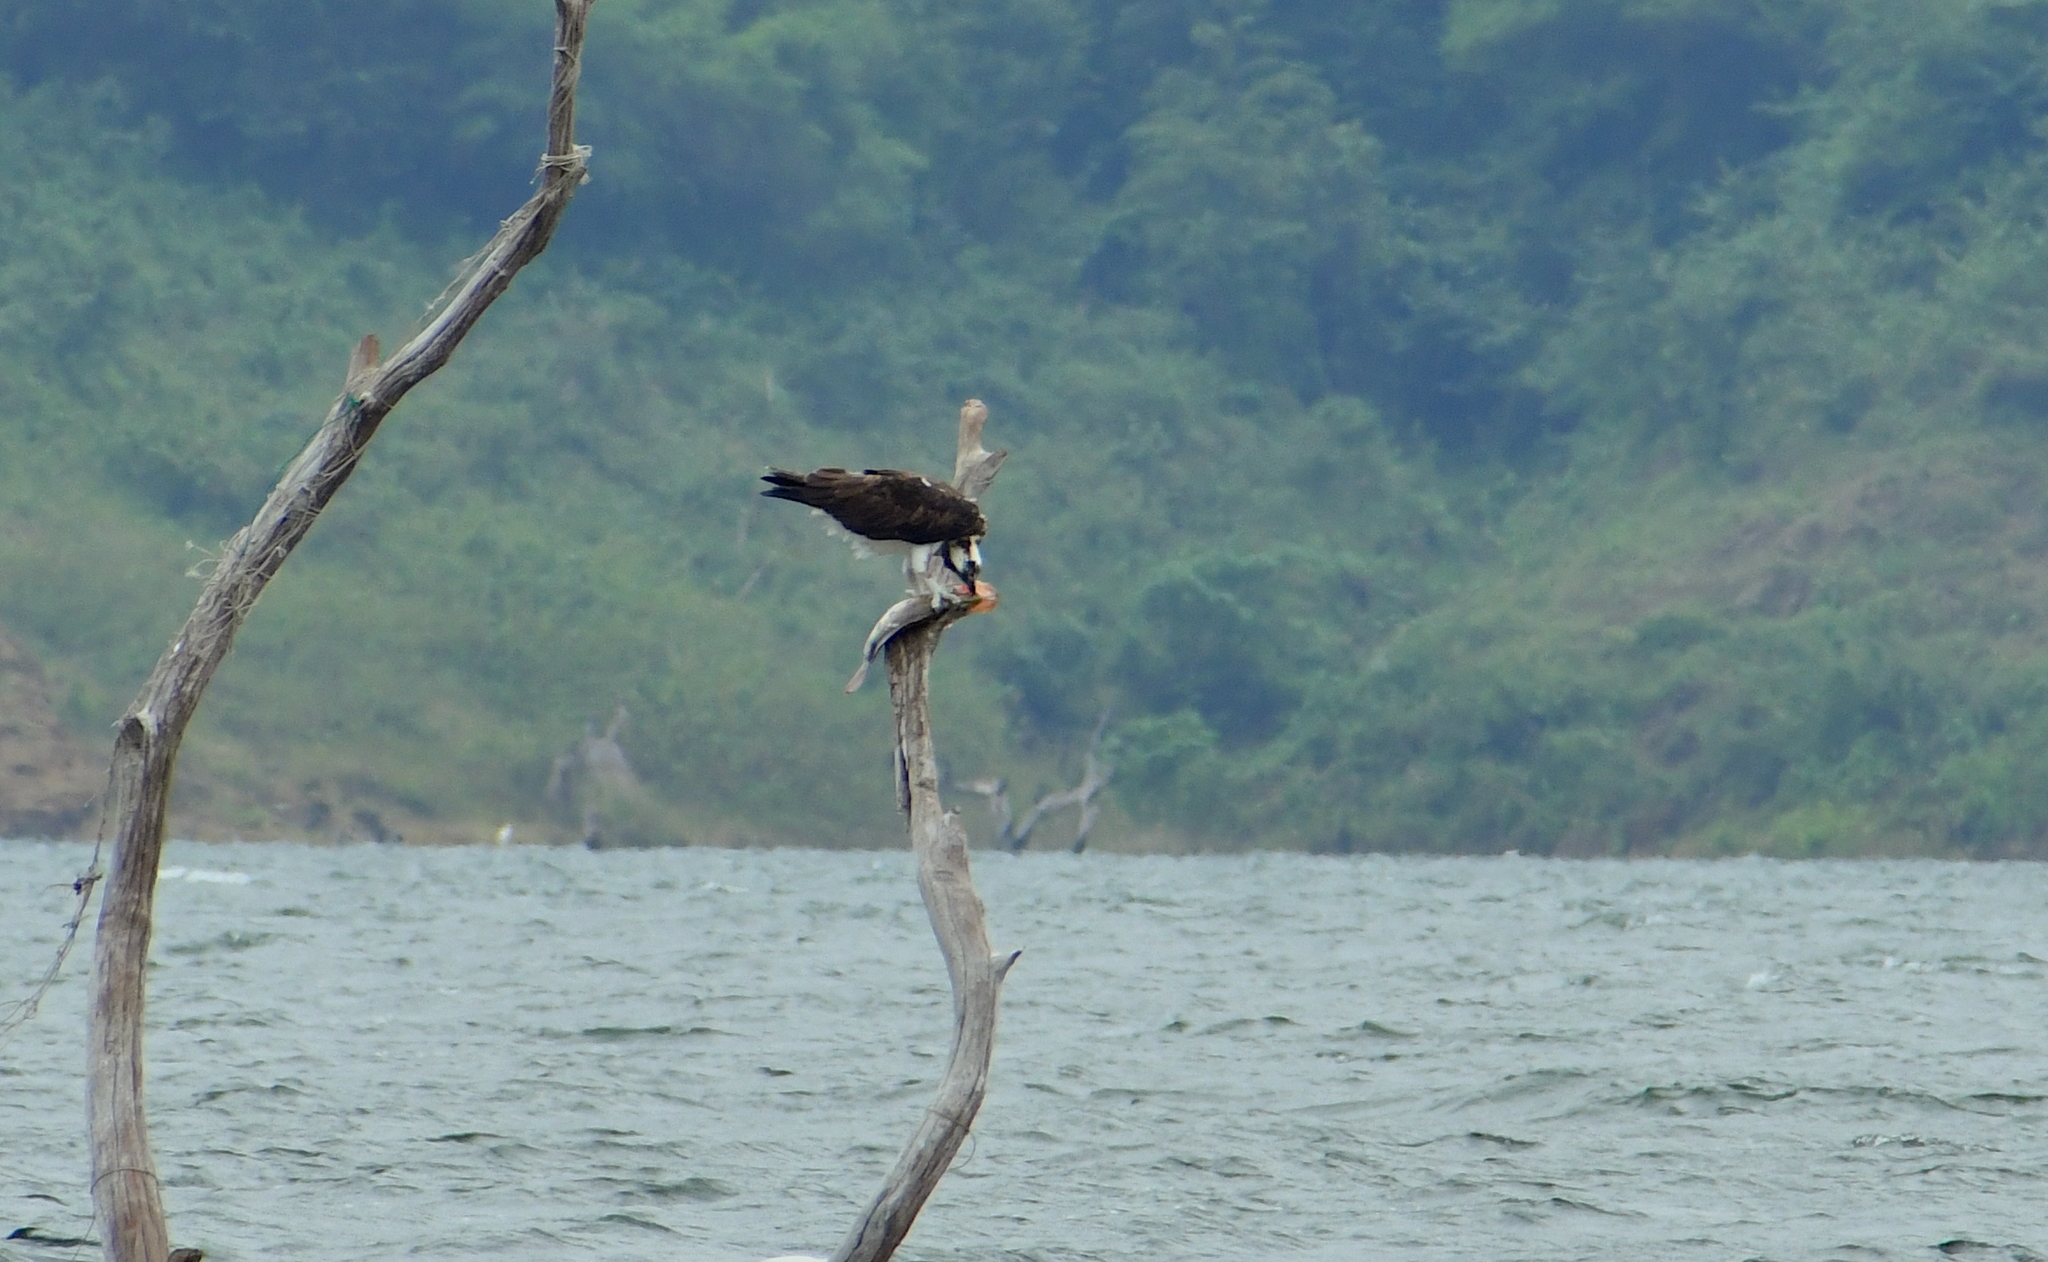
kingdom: Animalia
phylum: Chordata
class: Aves
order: Accipitriformes
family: Pandionidae
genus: Pandion
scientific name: Pandion haliaetus
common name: Osprey
